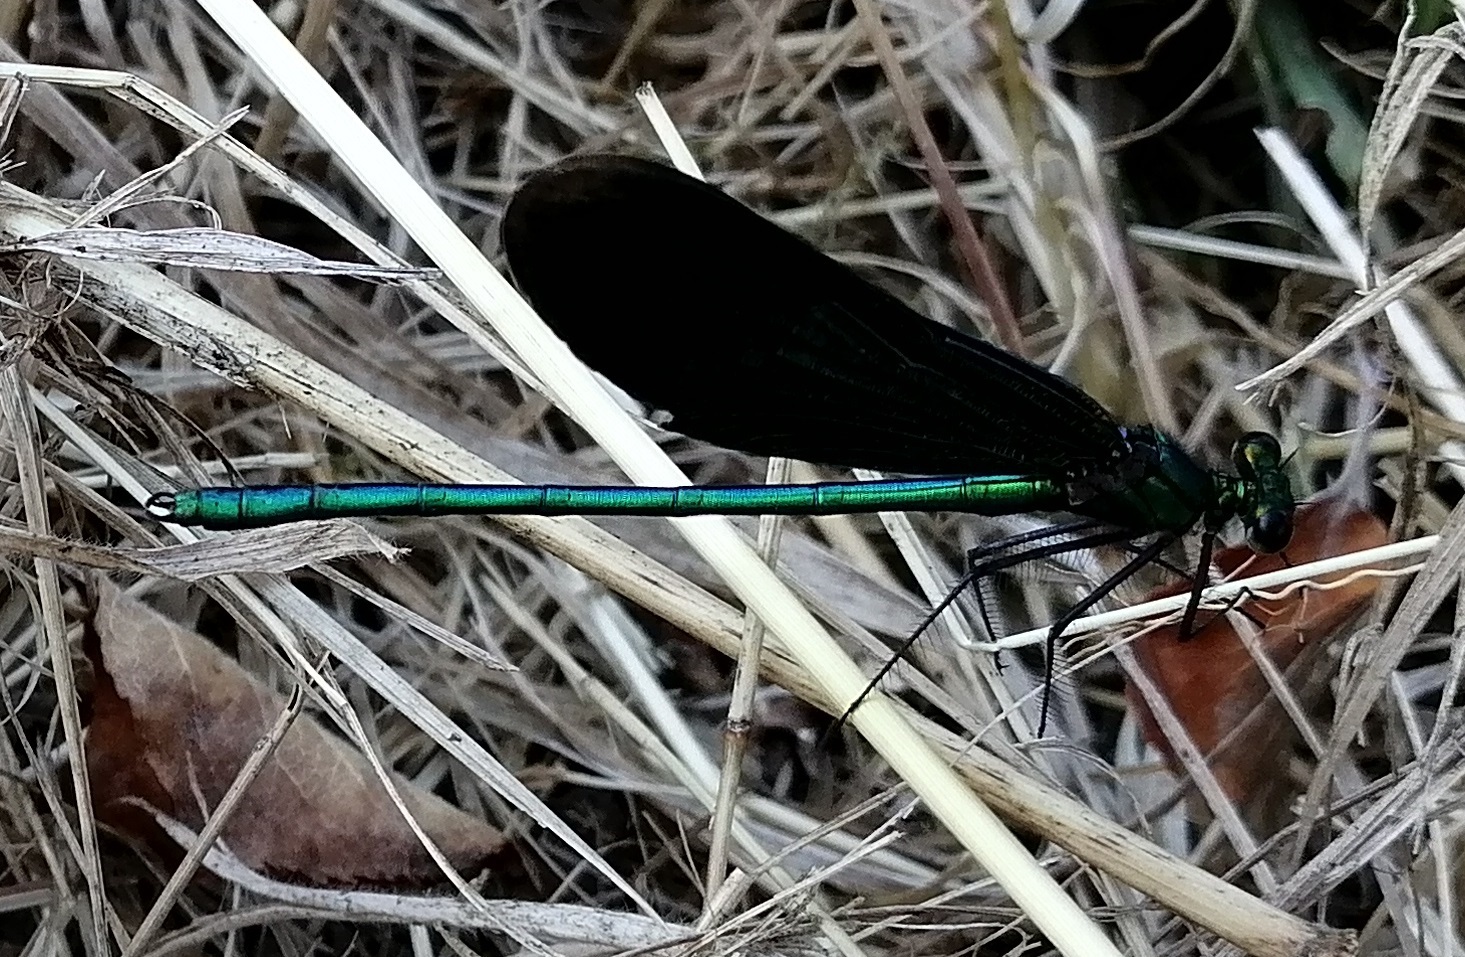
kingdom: Animalia
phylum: Arthropoda
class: Insecta
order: Odonata
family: Calopterygidae
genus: Calopteryx
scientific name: Calopteryx virgo
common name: Beautiful demoiselle
